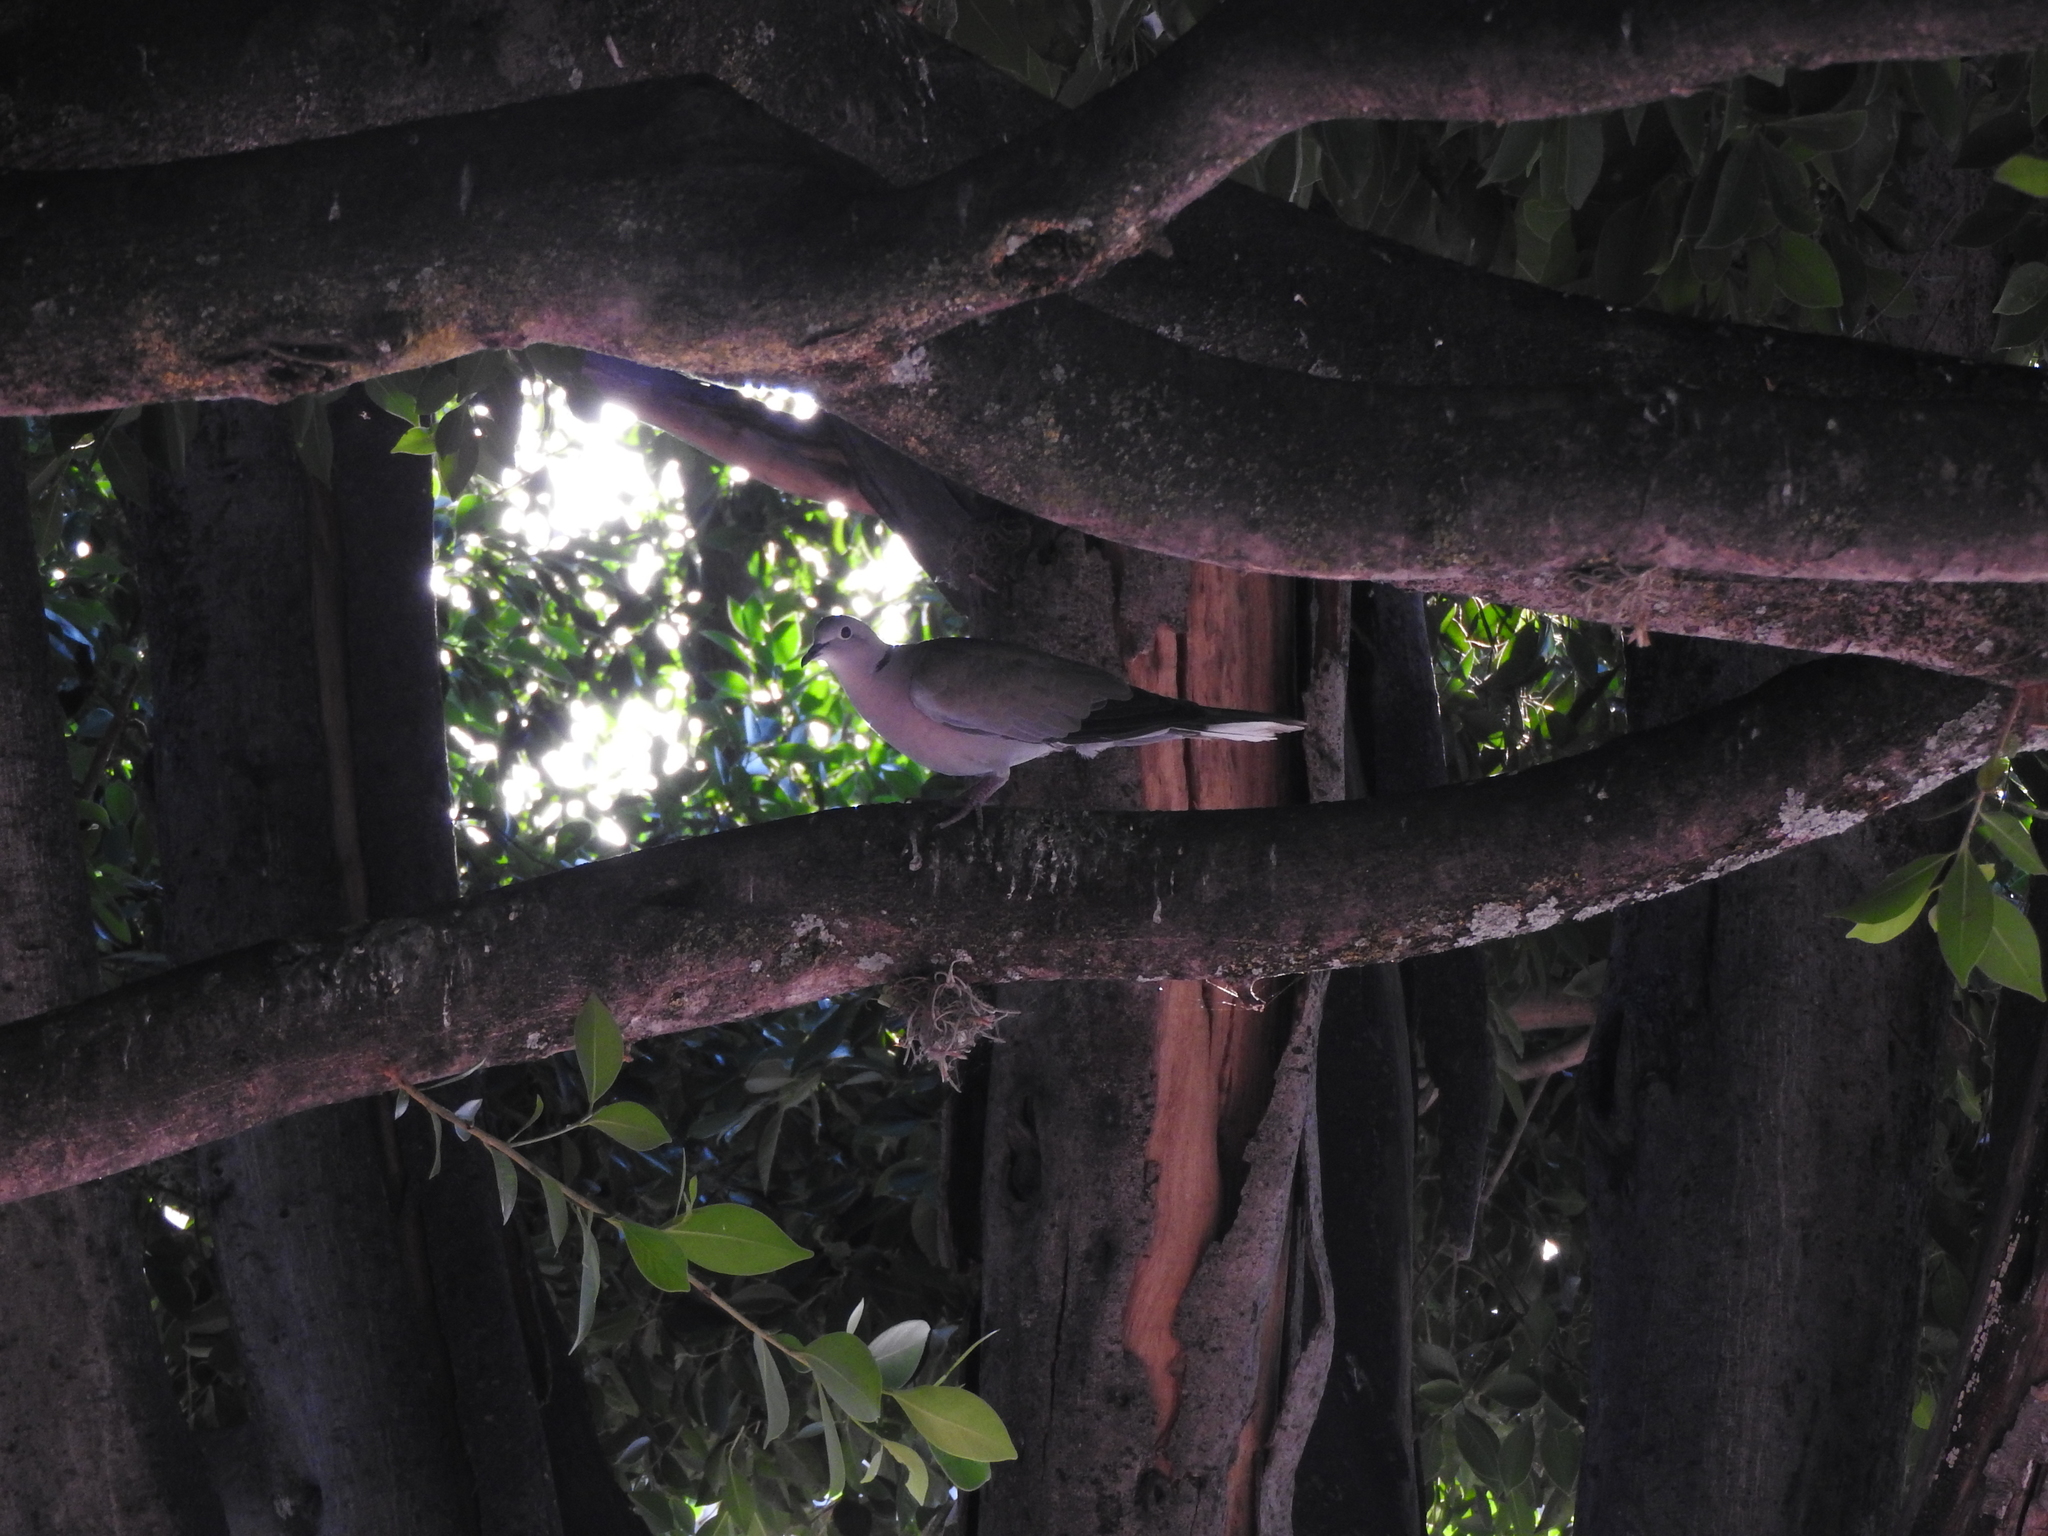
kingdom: Animalia
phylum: Chordata
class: Aves
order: Columbiformes
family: Columbidae
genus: Streptopelia
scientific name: Streptopelia decaocto
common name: Eurasian collared dove
